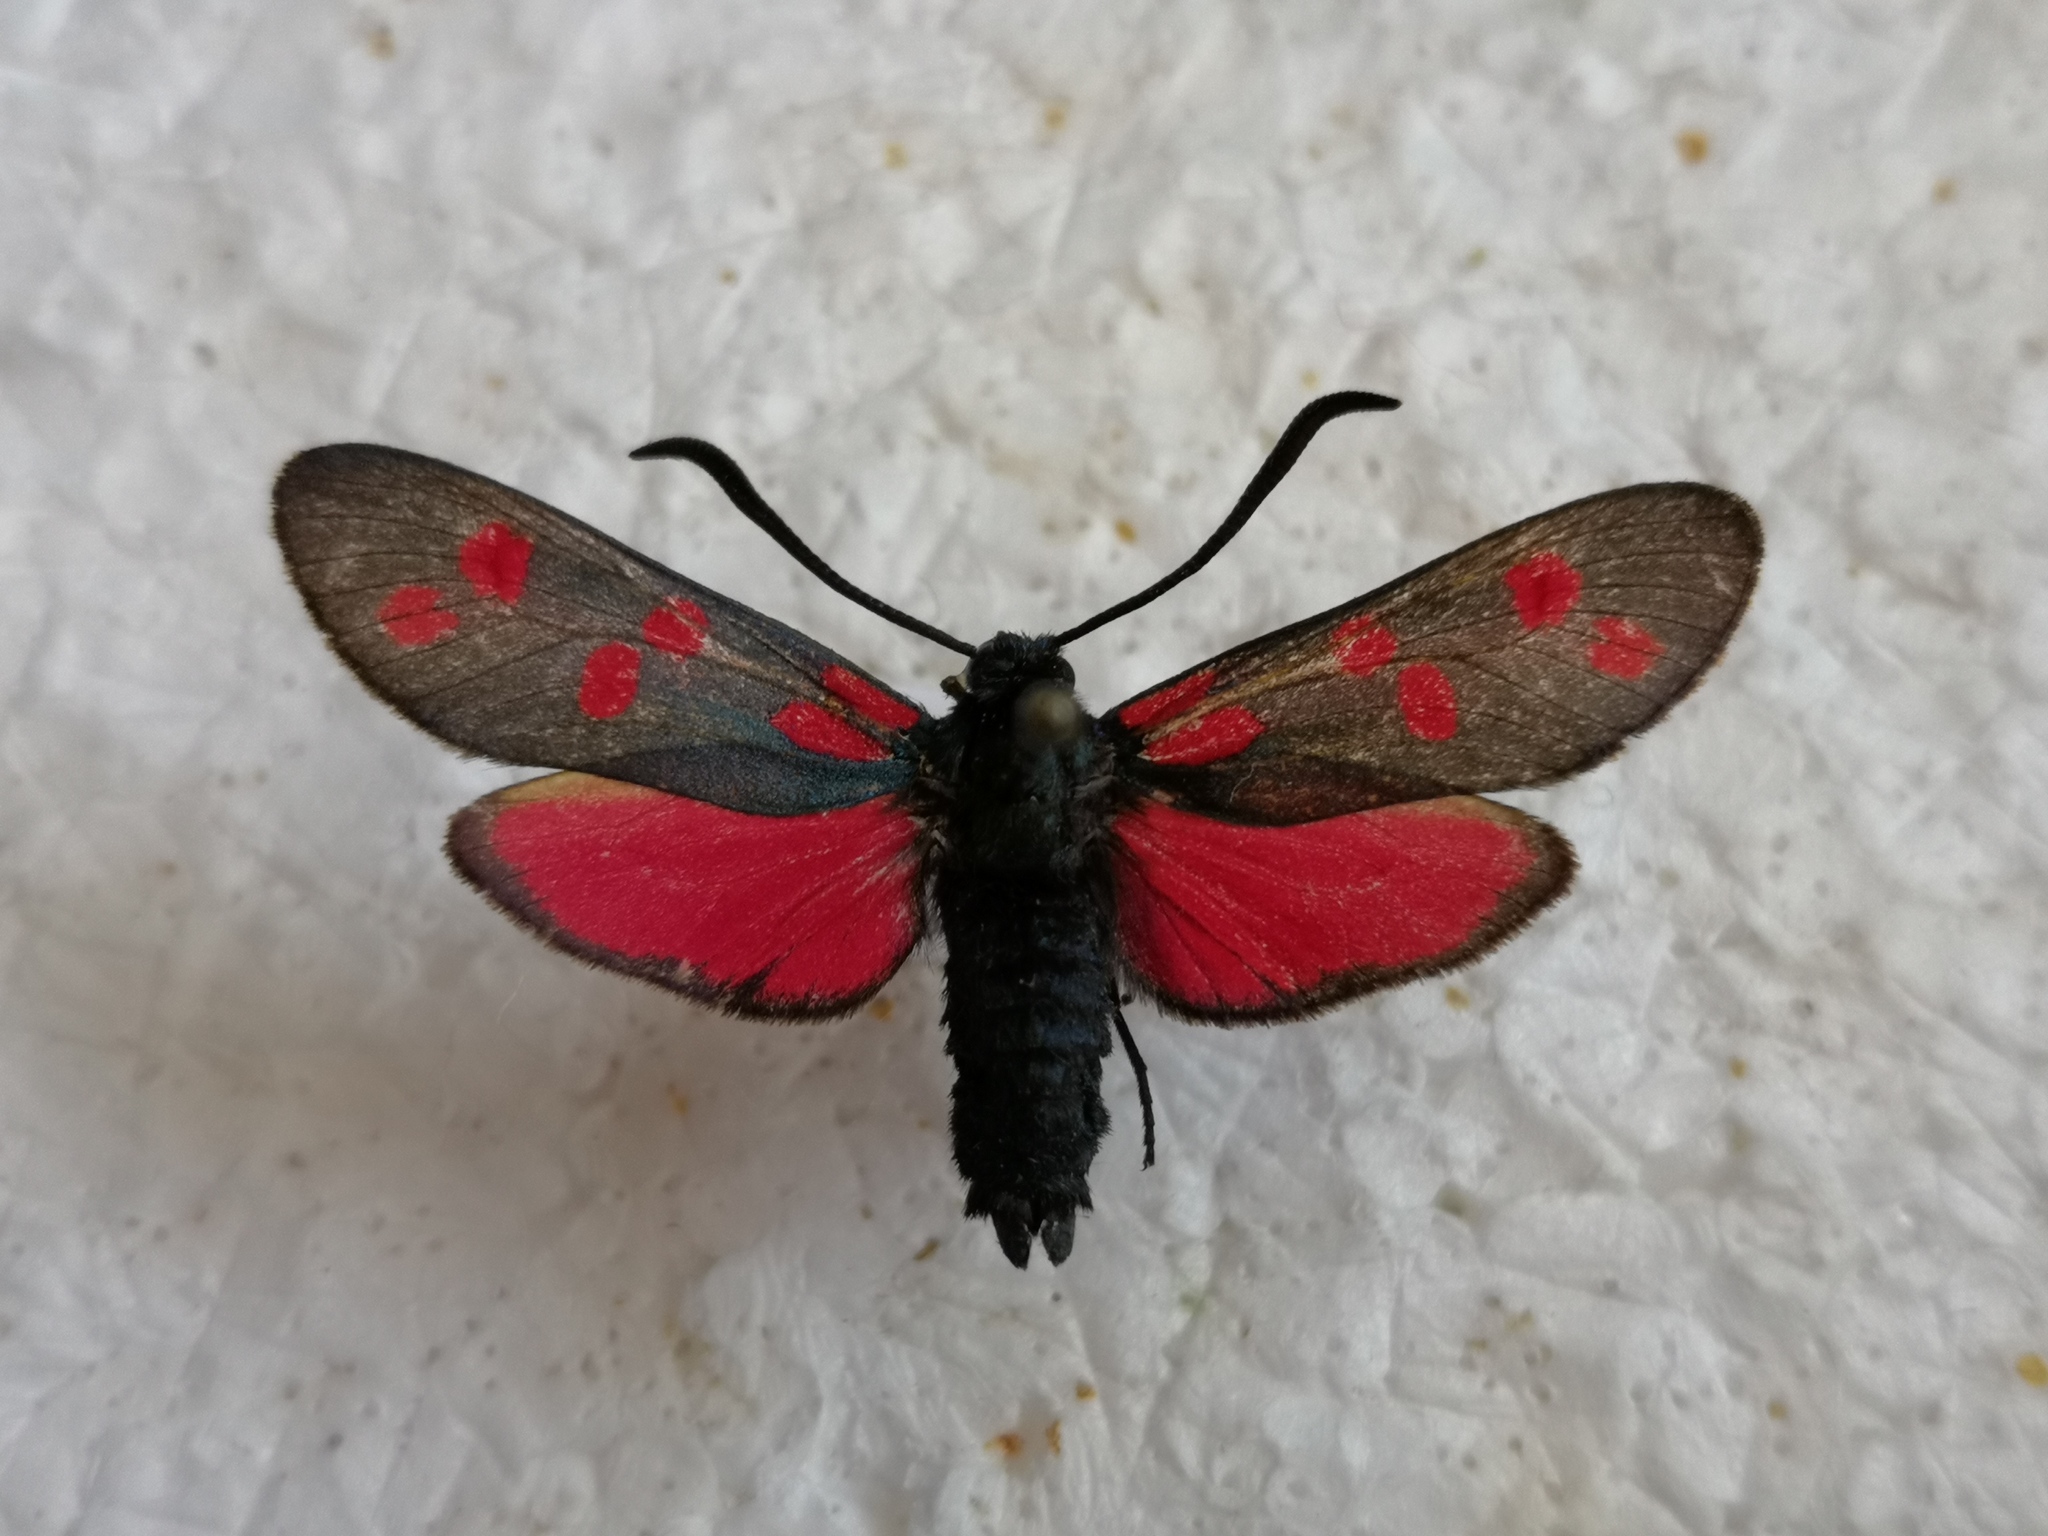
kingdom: Animalia
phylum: Arthropoda
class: Insecta
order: Lepidoptera
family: Zygaenidae
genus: Zygaena
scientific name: Zygaena filipendulae
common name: Six-spot burnet
